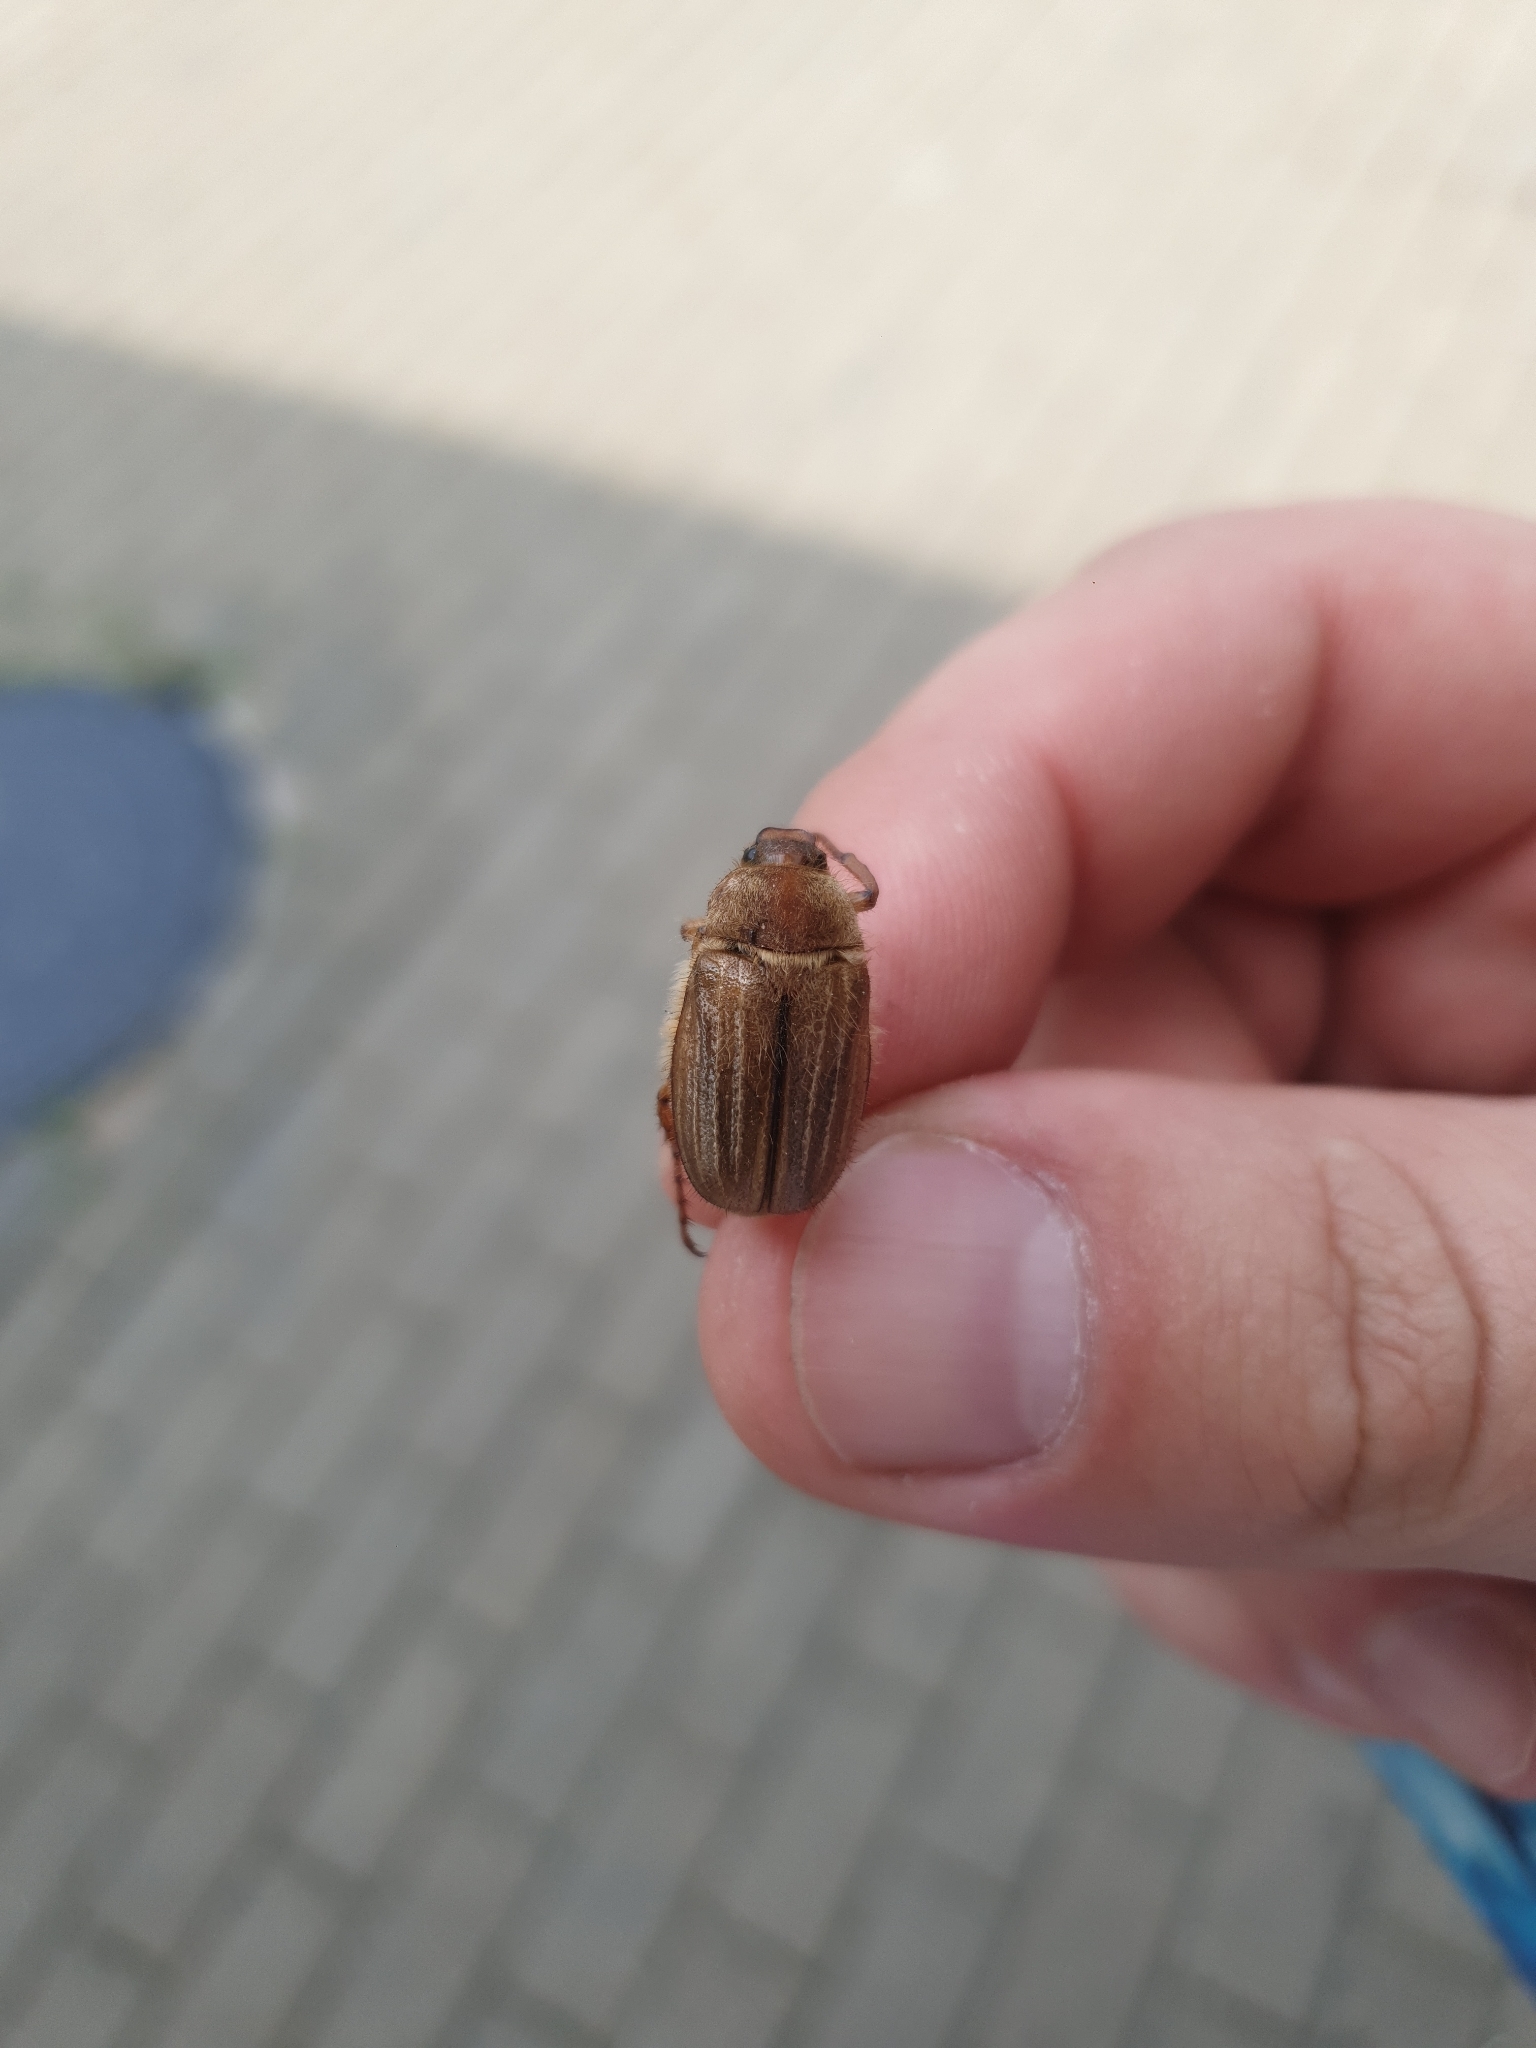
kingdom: Animalia
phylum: Arthropoda
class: Insecta
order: Coleoptera
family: Scarabaeidae
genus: Amphimallon
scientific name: Amphimallon solstitiale
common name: Summer chafer
